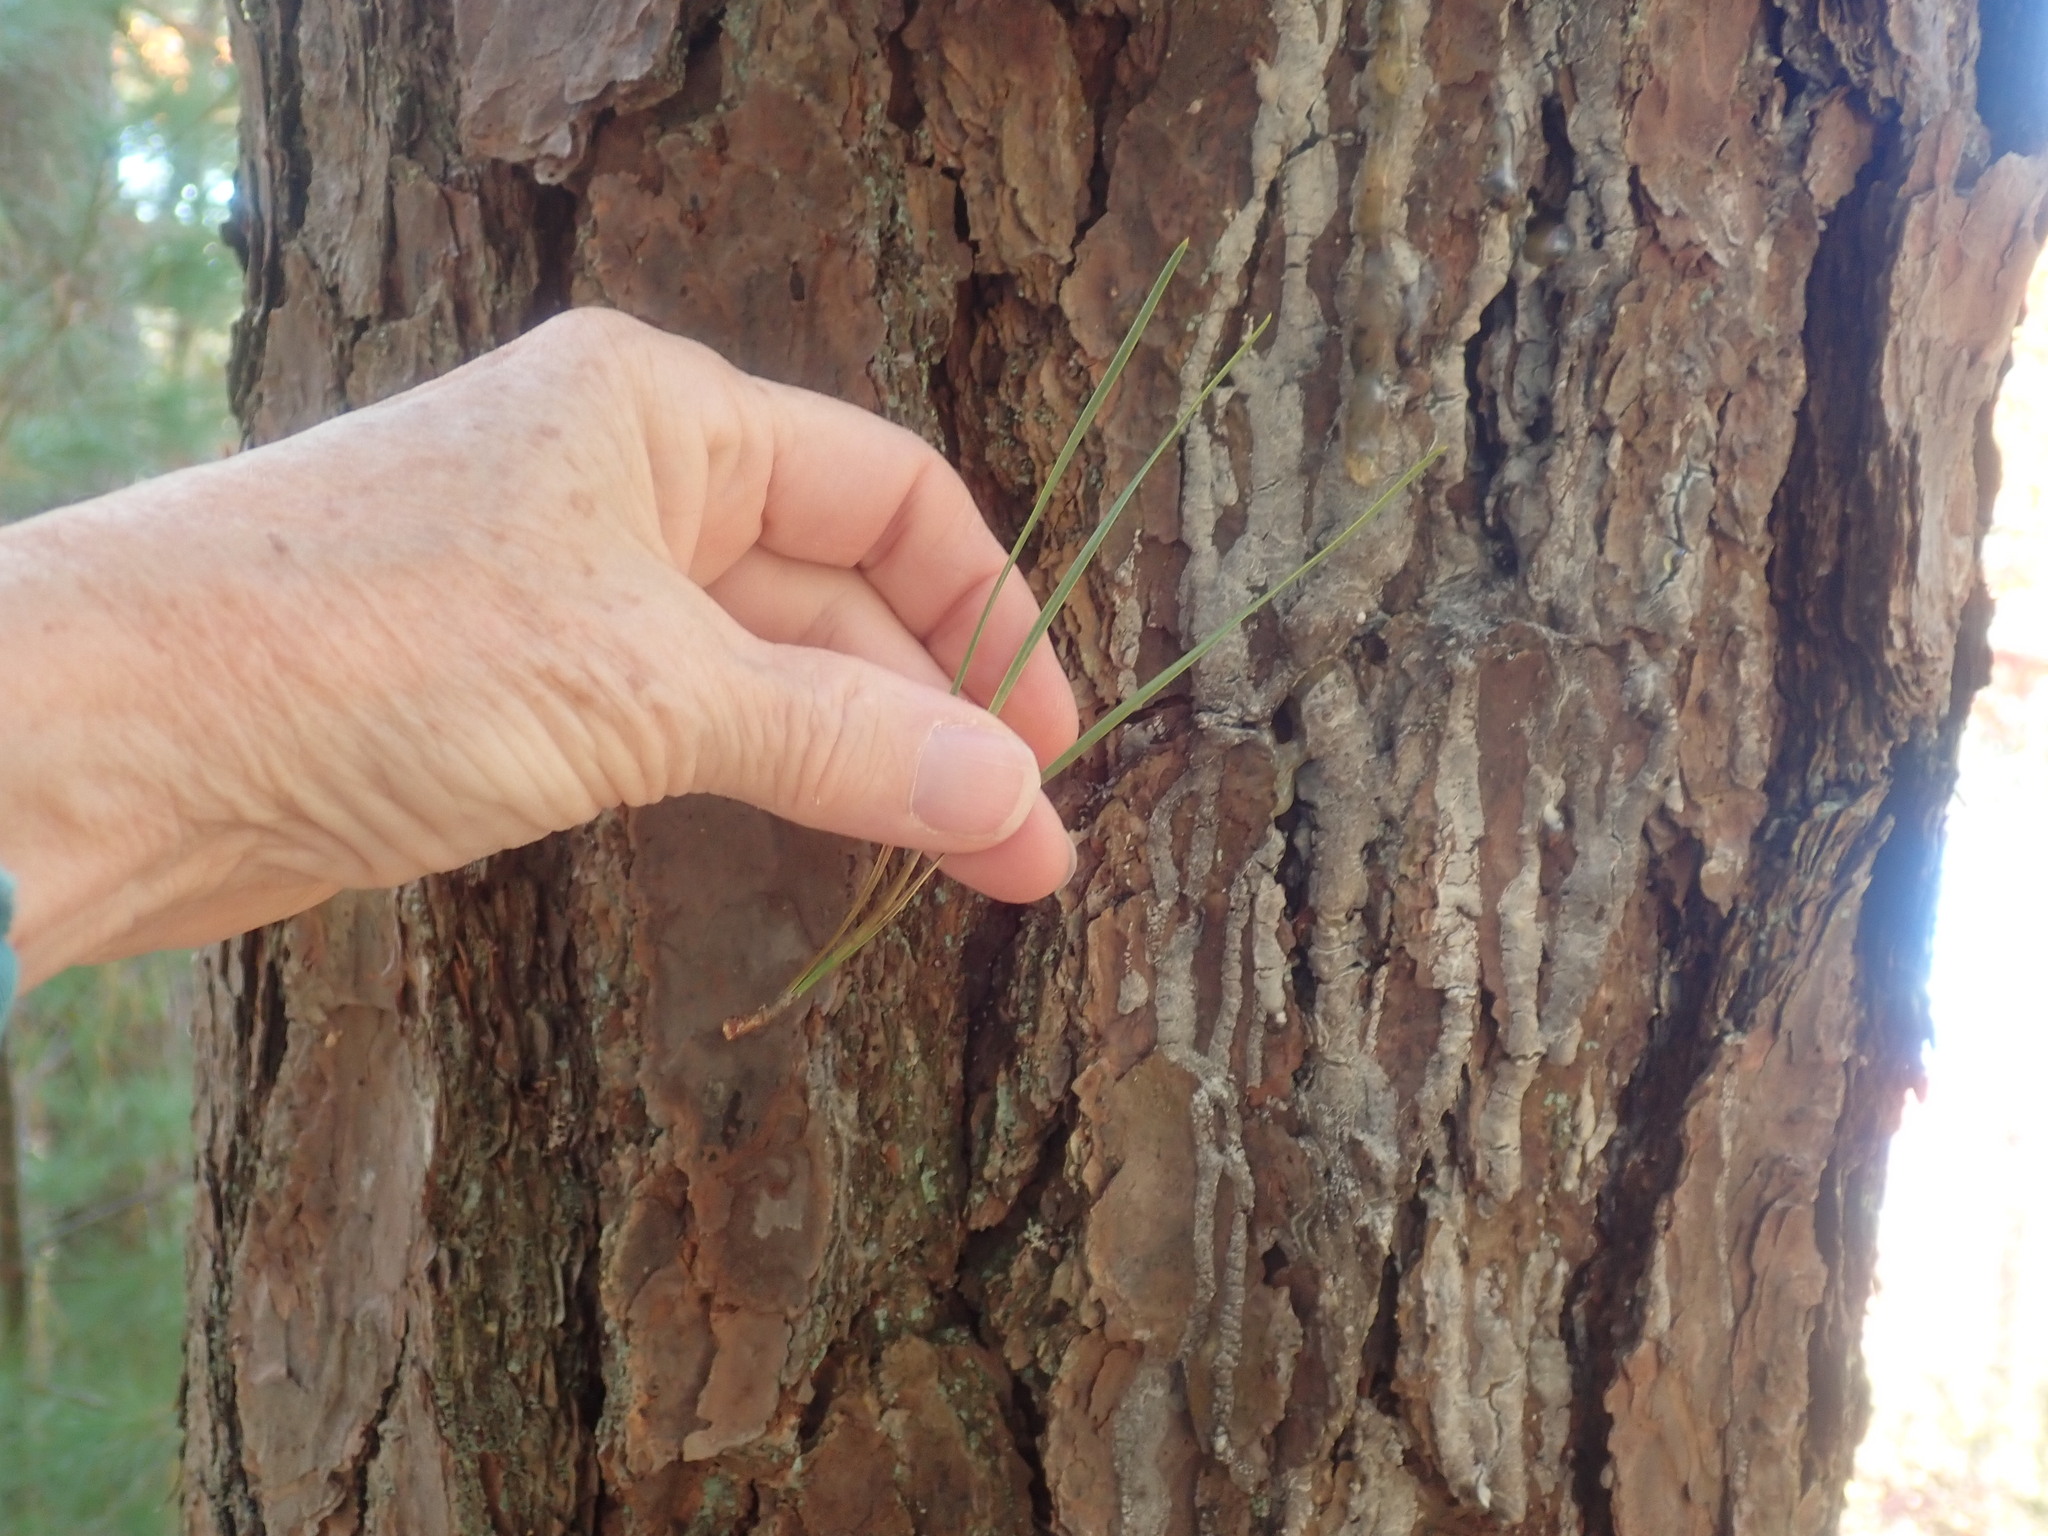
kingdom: Plantae
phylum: Tracheophyta
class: Pinopsida
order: Pinales
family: Pinaceae
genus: Pinus
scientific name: Pinus rigida
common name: Pitch pine
